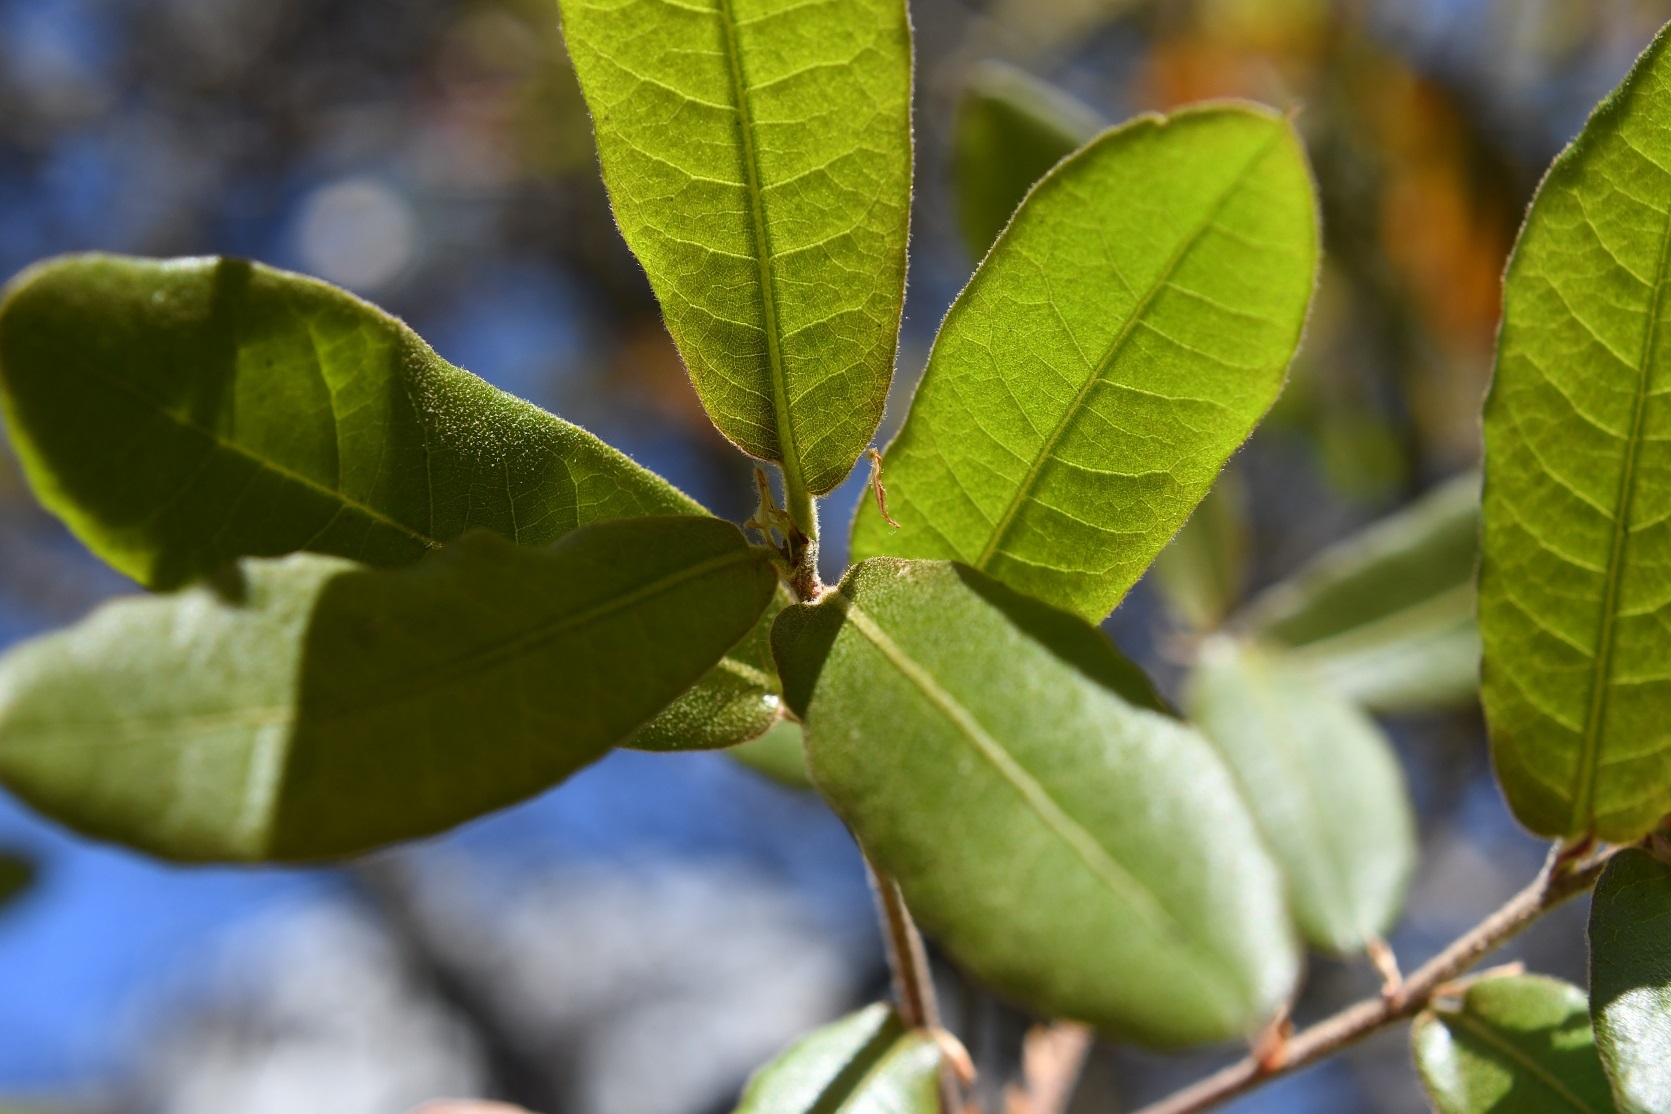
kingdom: Plantae
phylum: Tracheophyta
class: Magnoliopsida
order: Fagales
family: Fagaceae
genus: Quercus
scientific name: Quercus crispipilis
